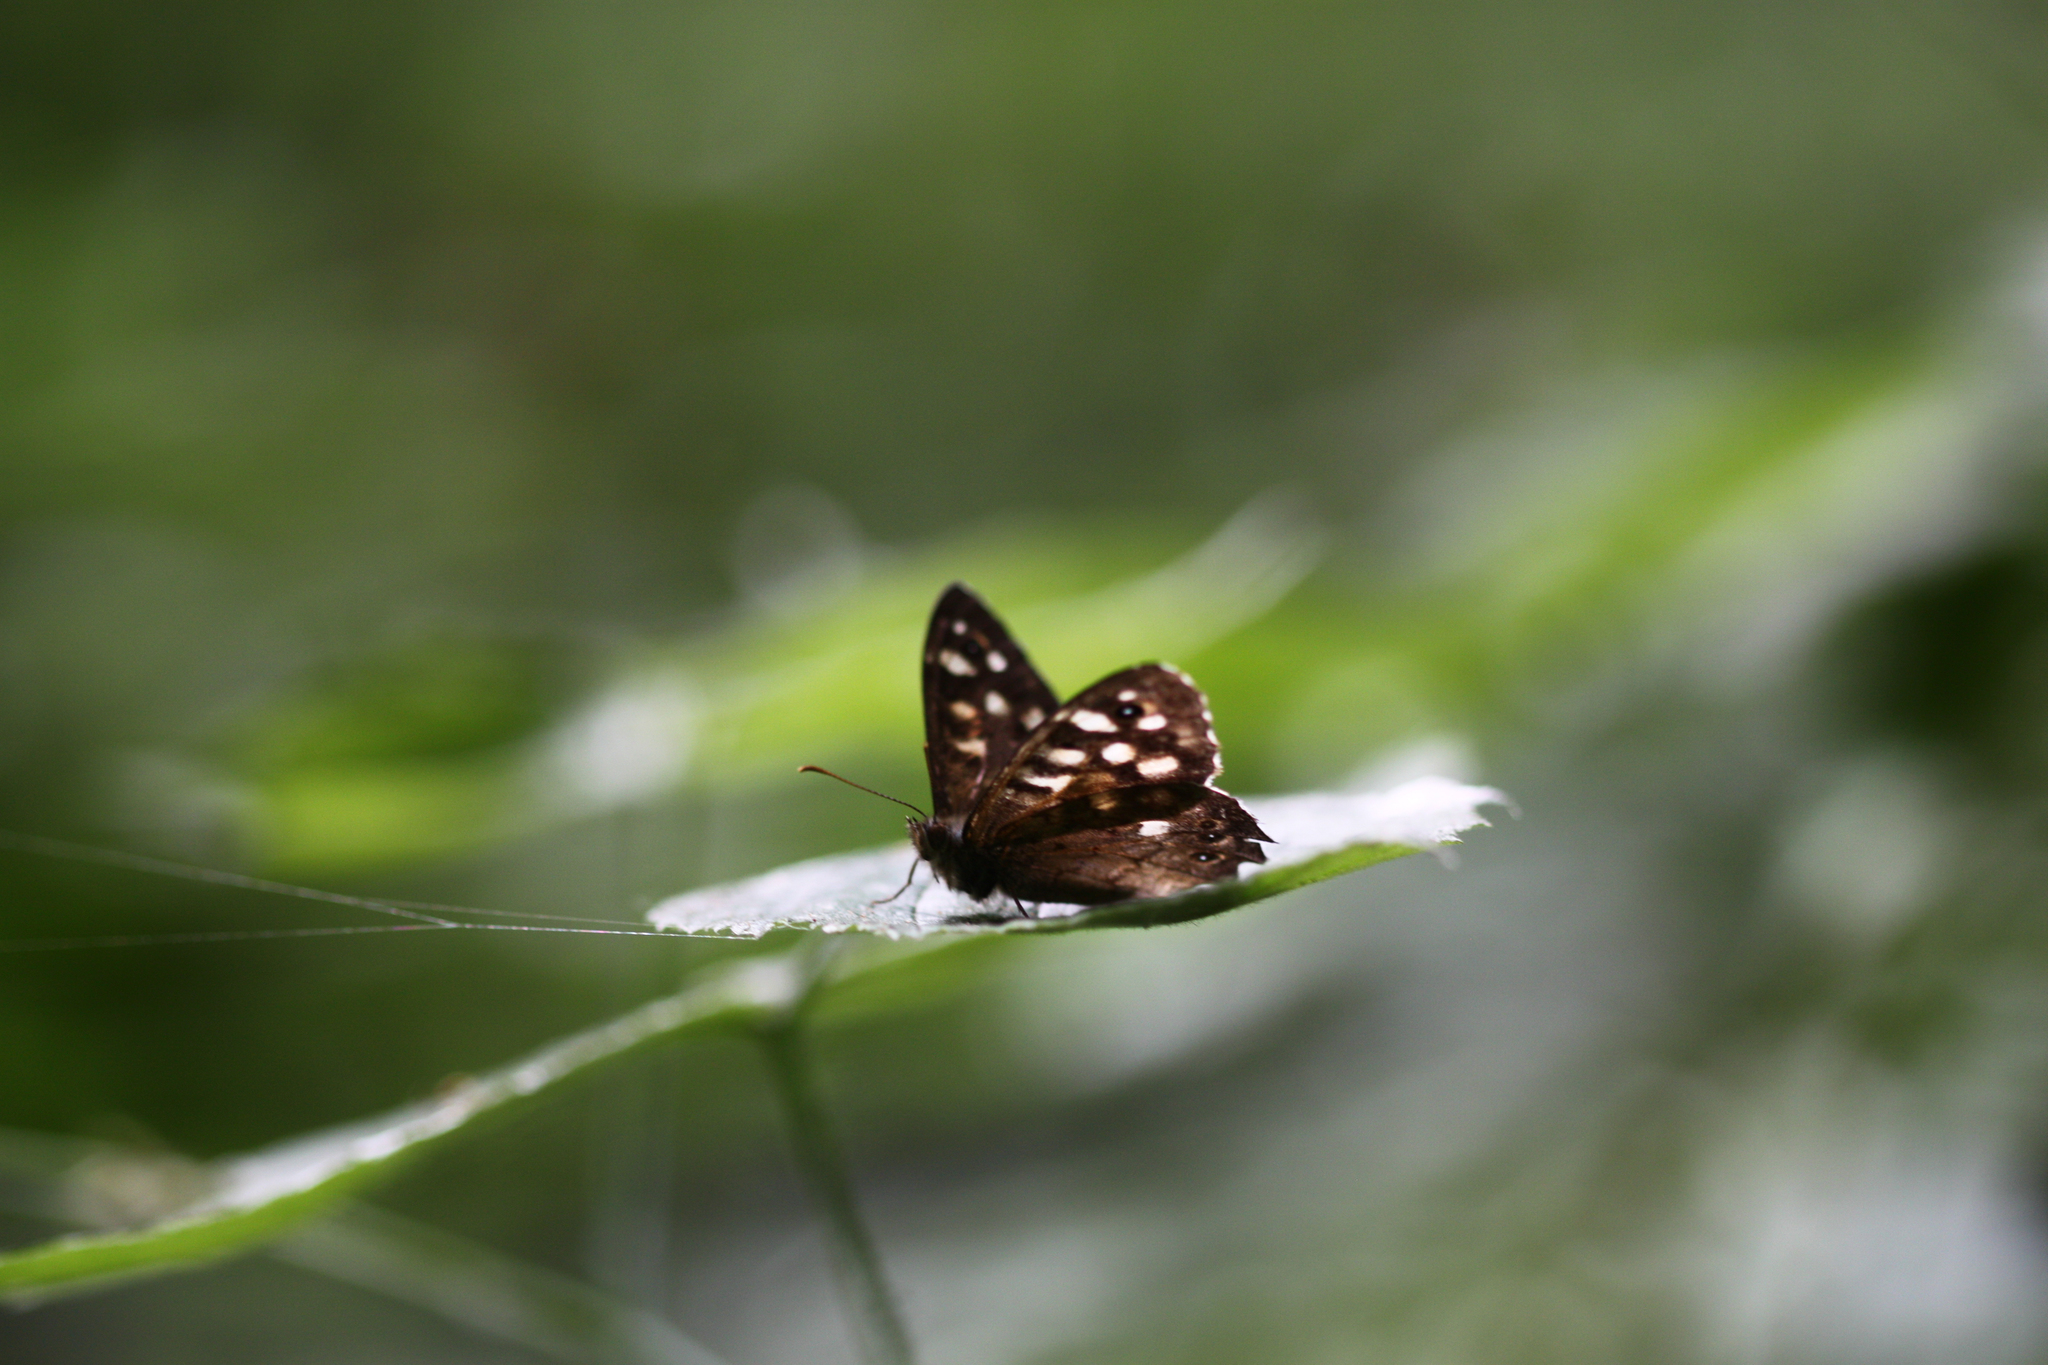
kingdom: Animalia
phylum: Arthropoda
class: Insecta
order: Lepidoptera
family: Nymphalidae
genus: Pararge
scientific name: Pararge aegeria
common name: Speckled wood
